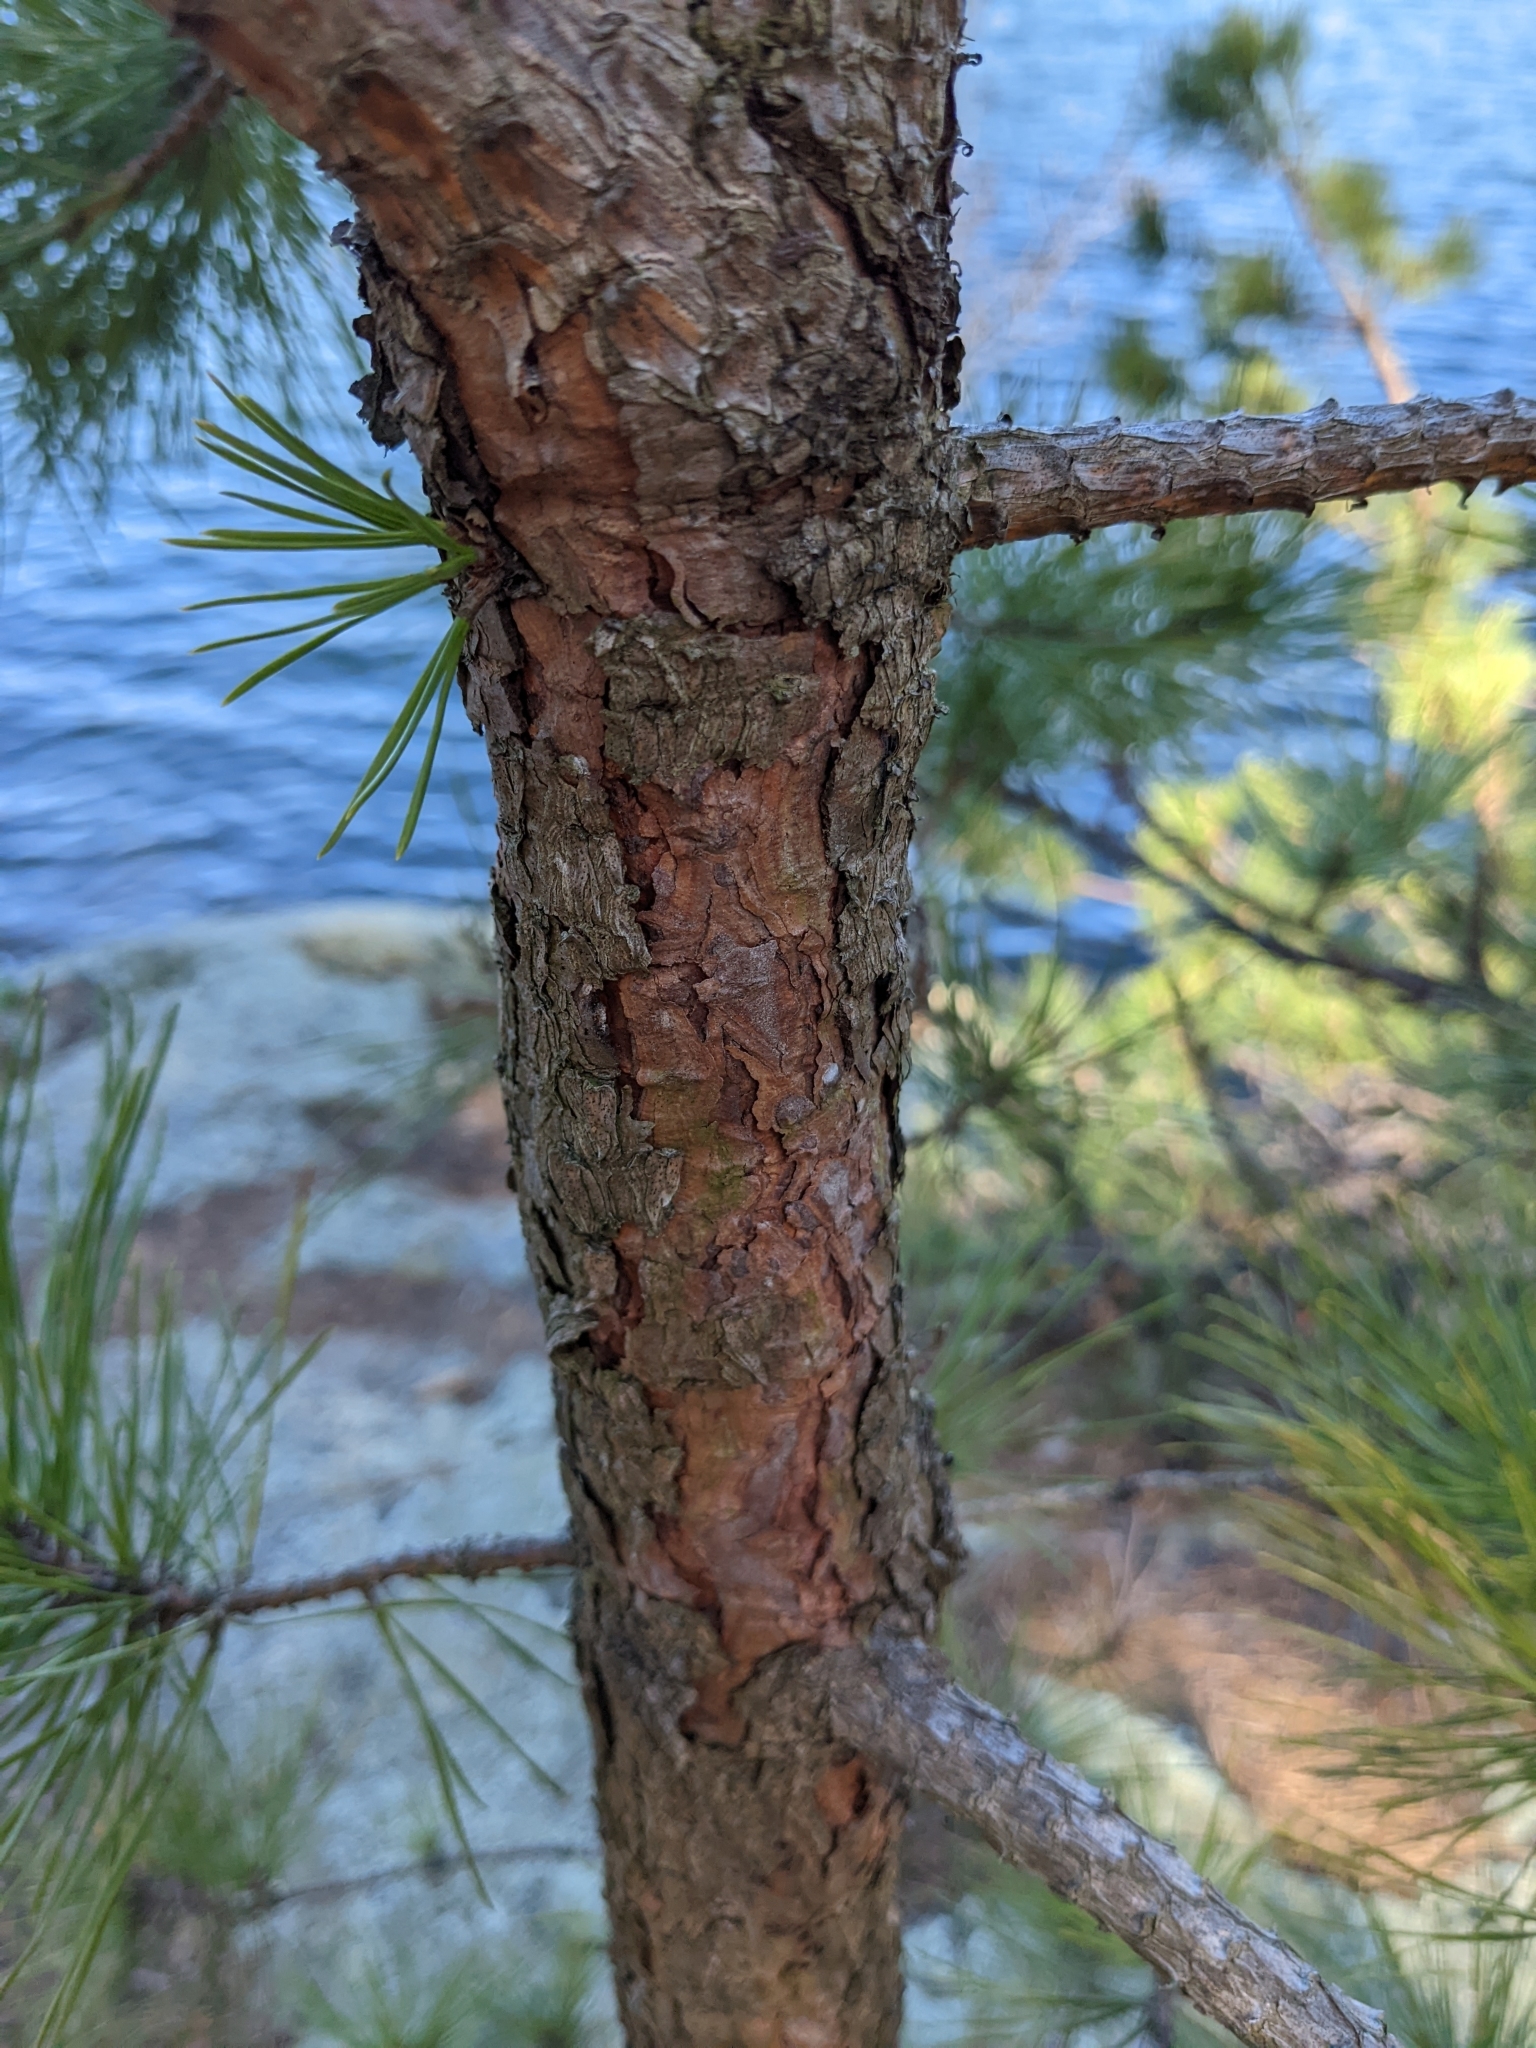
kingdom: Plantae
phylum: Tracheophyta
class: Pinopsida
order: Pinales
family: Pinaceae
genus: Pinus
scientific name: Pinus rigida
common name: Pitch pine
